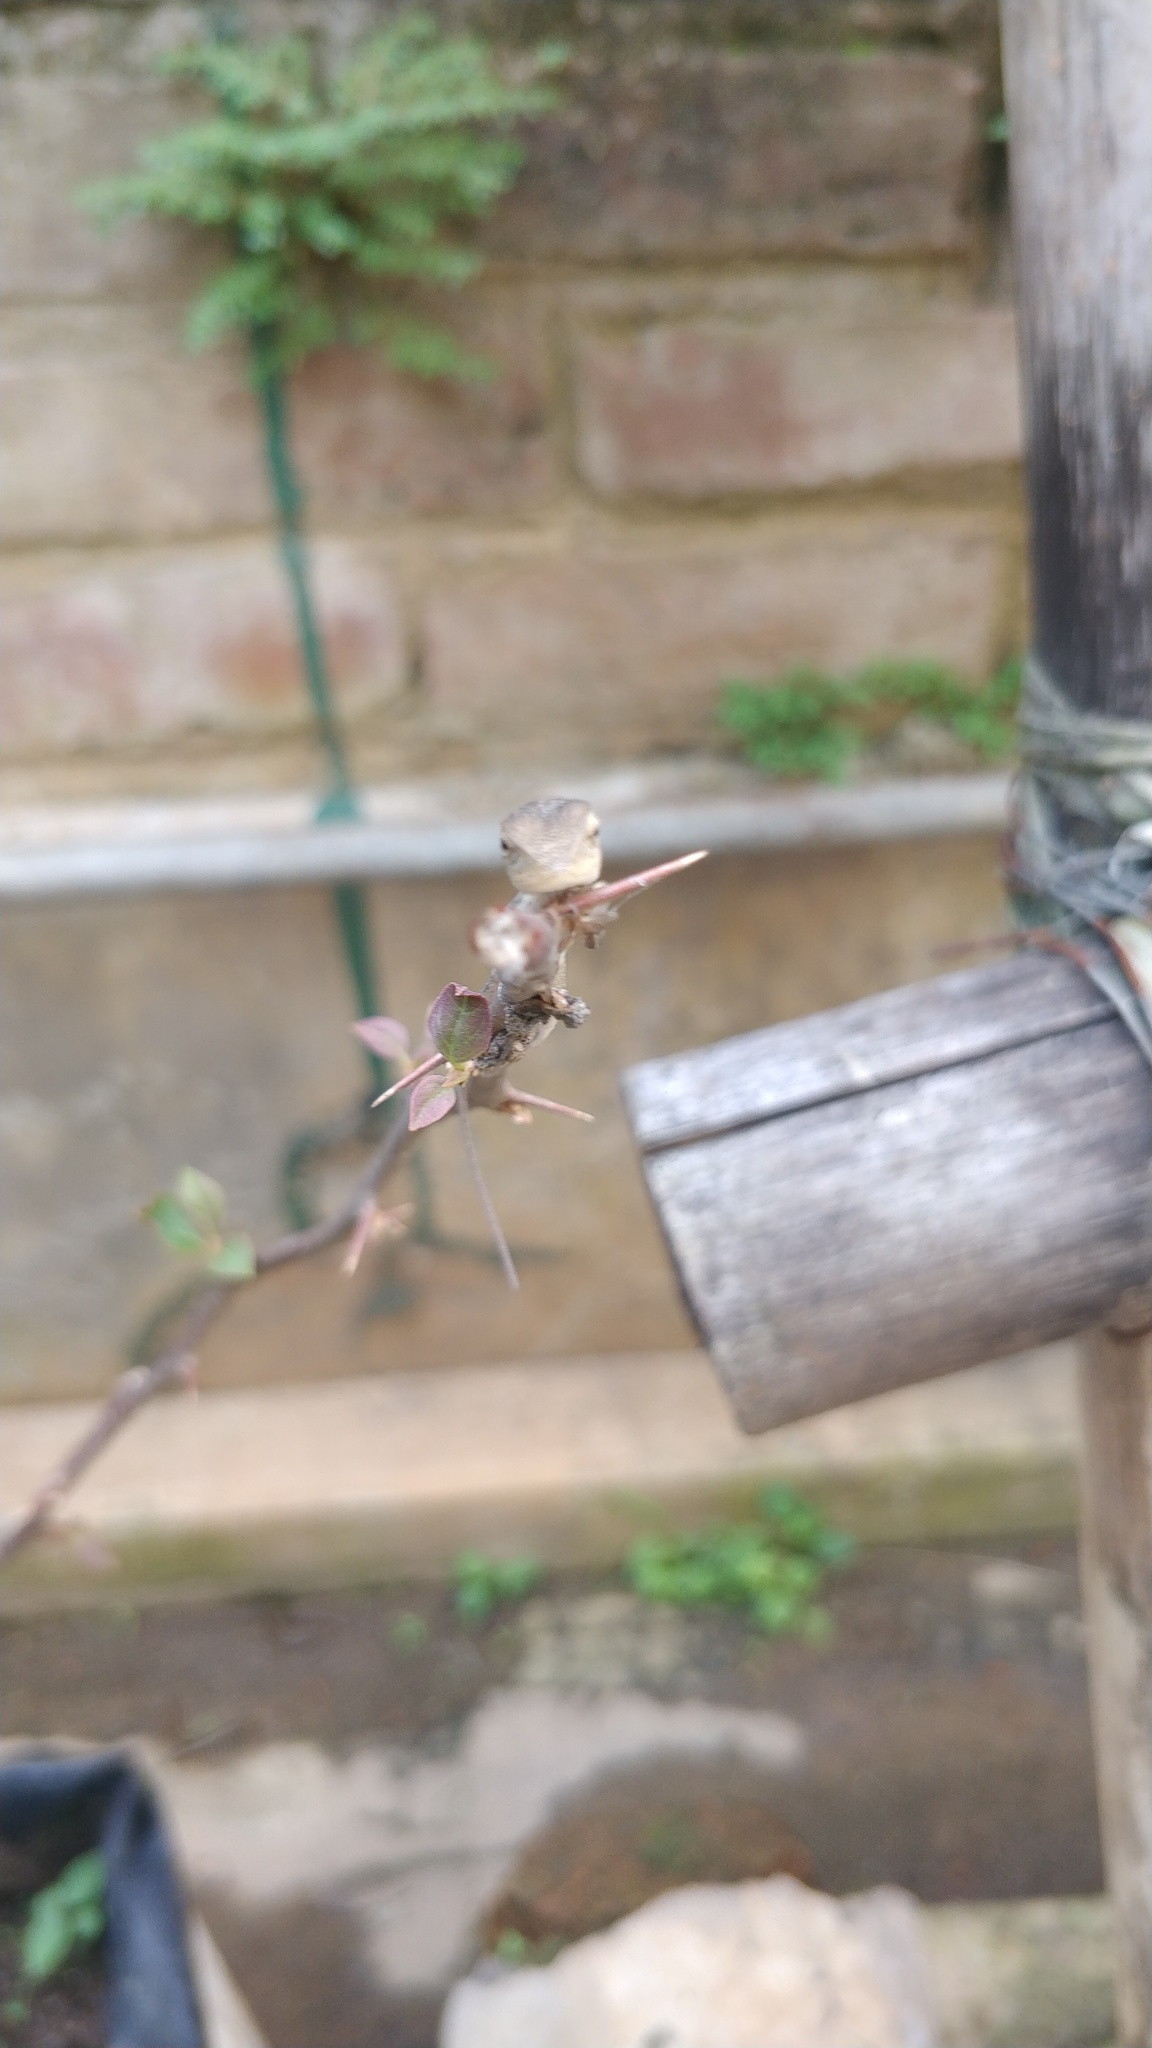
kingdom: Animalia
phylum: Chordata
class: Squamata
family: Agamidae
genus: Calotes
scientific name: Calotes versicolor
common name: Oriental garden lizard
